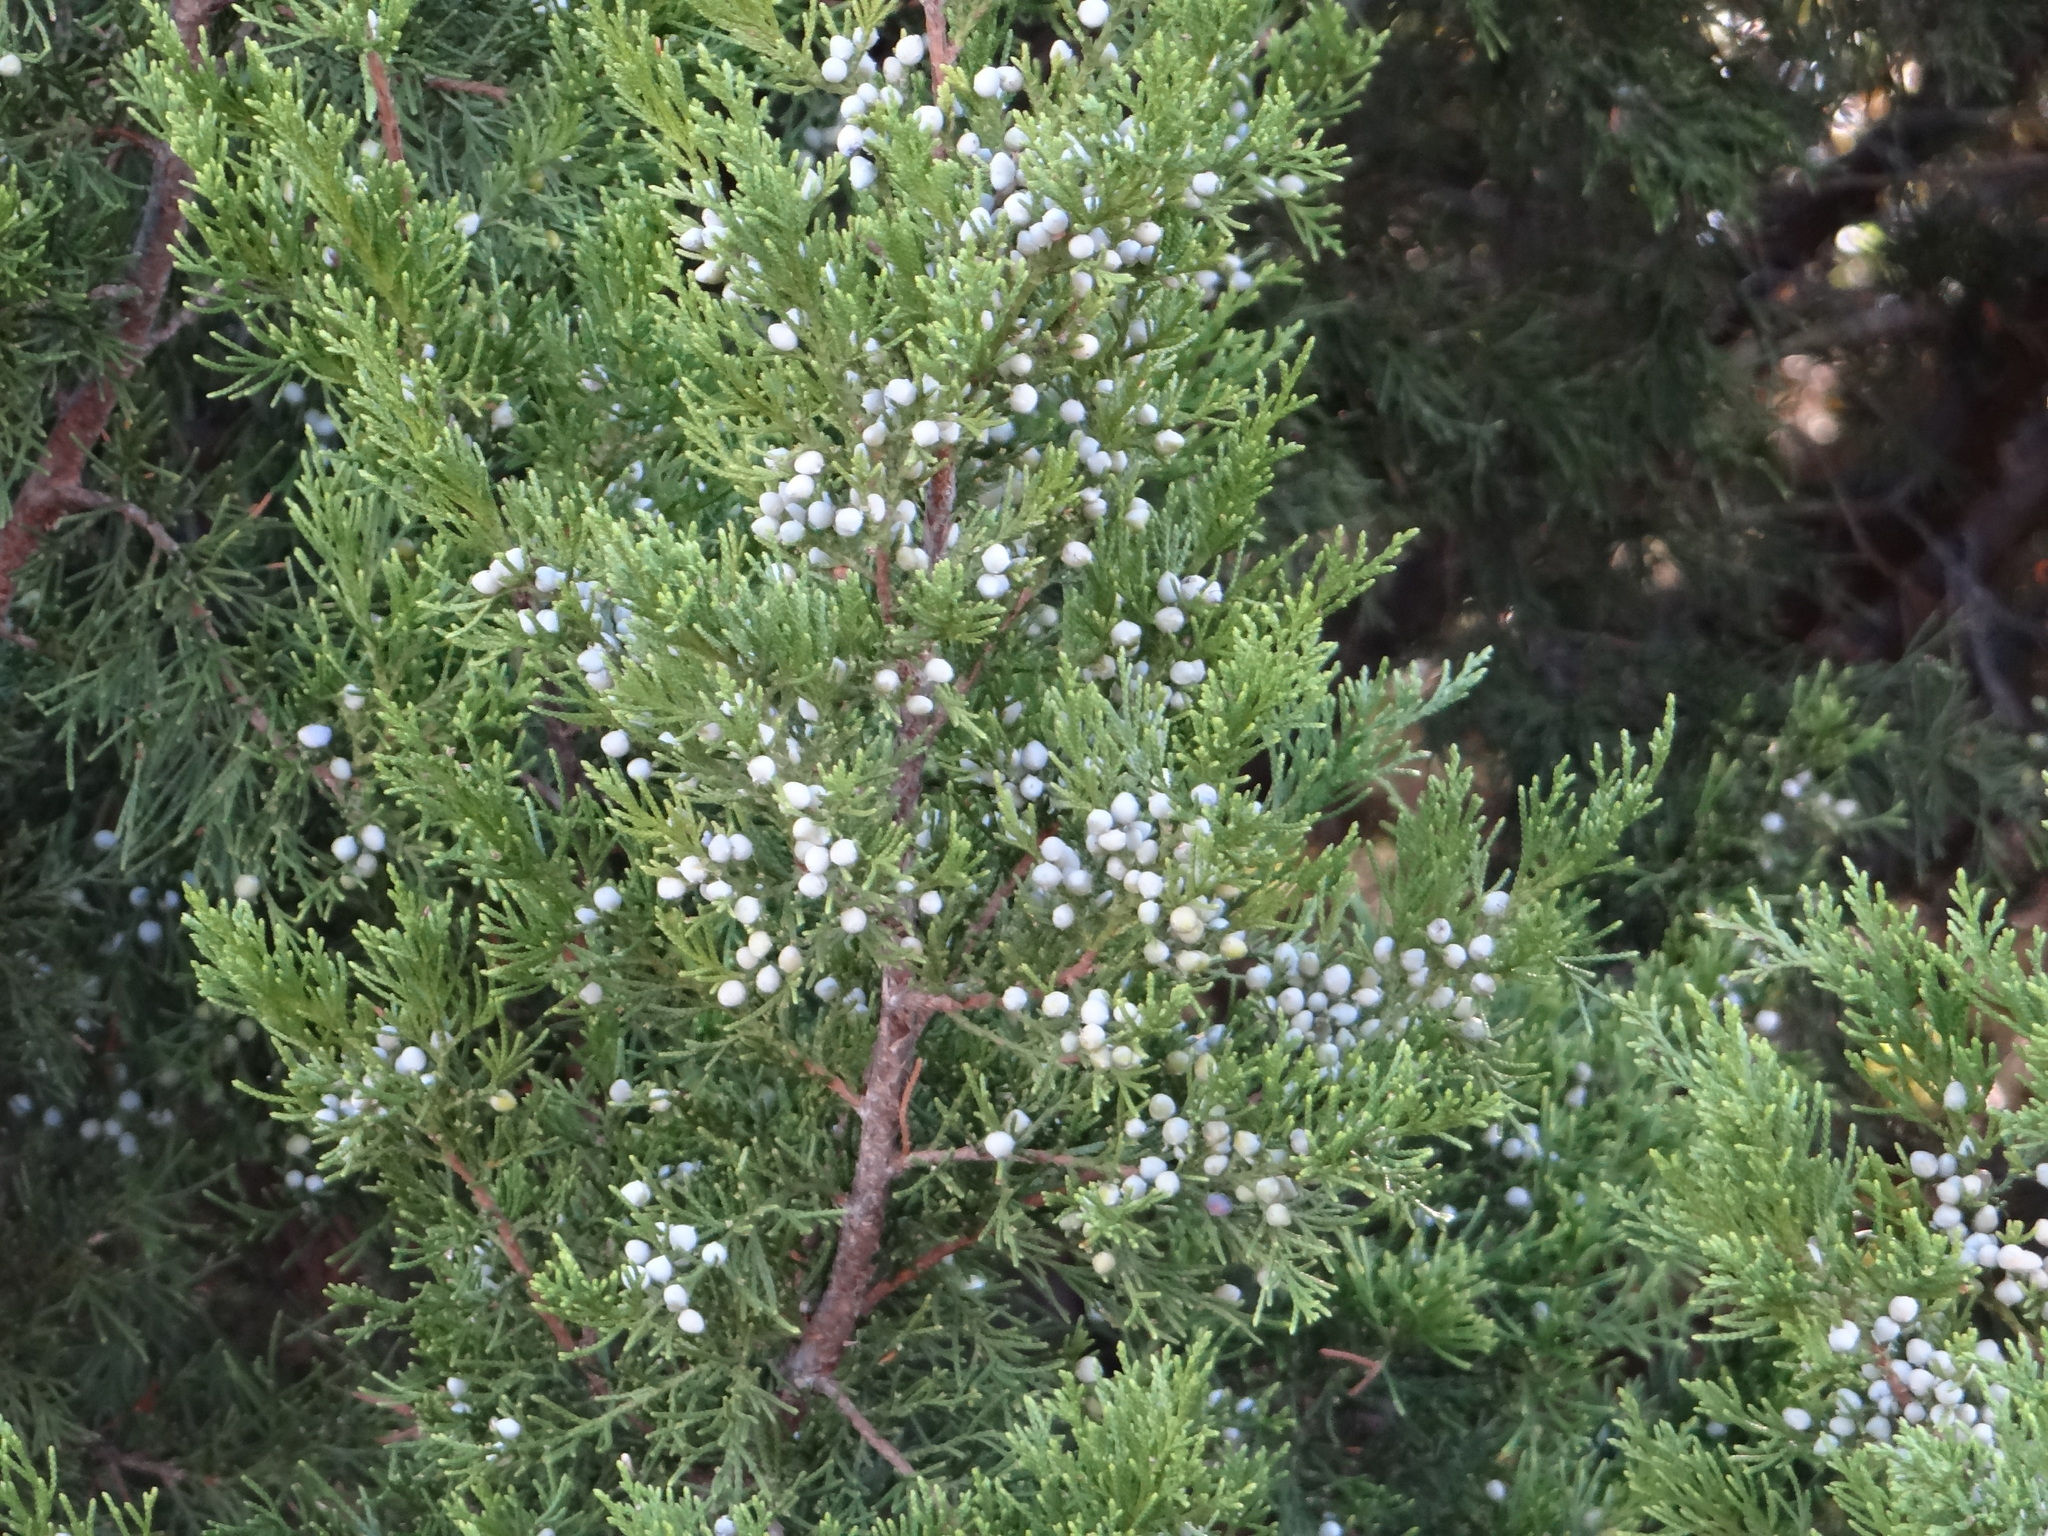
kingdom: Plantae
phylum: Tracheophyta
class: Pinopsida
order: Pinales
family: Cupressaceae
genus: Juniperus
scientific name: Juniperus virginiana
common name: Red juniper
